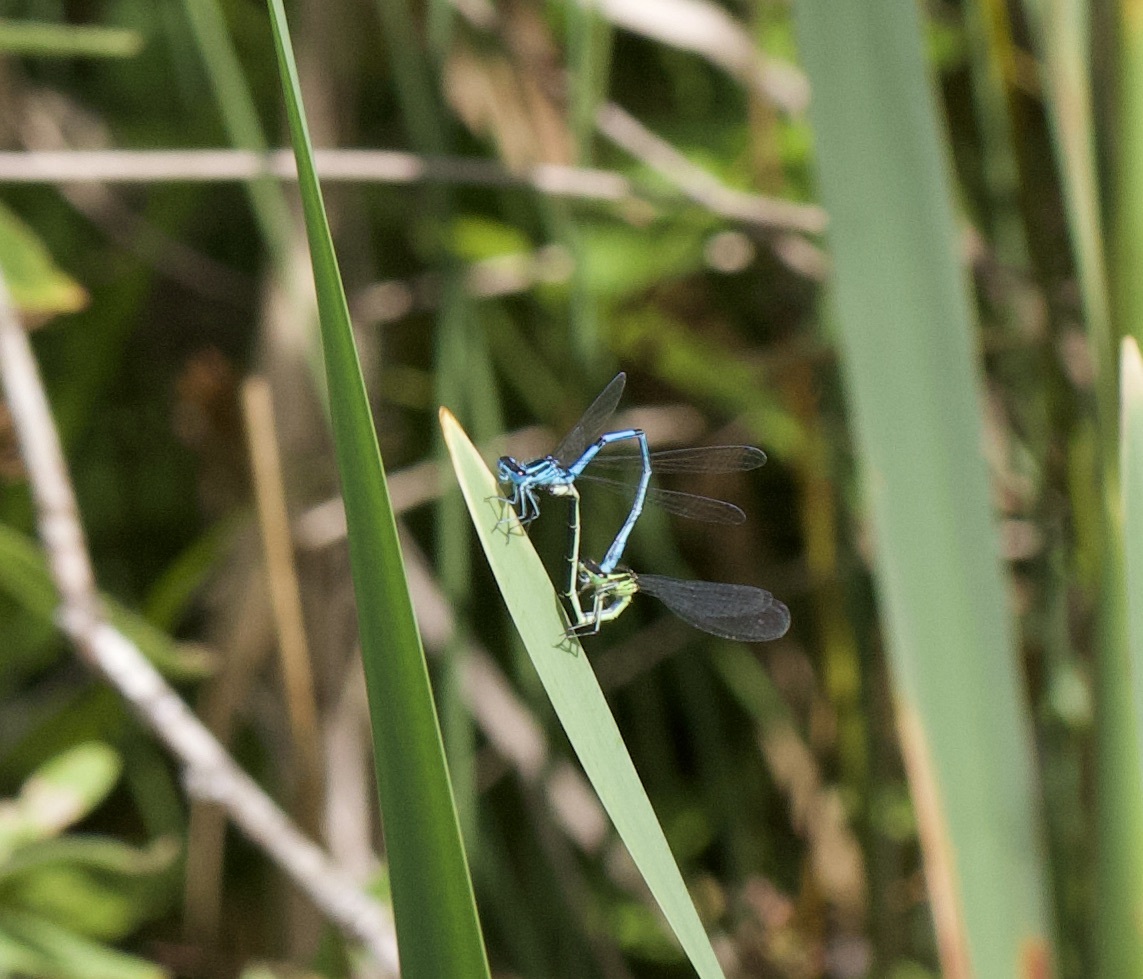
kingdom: Animalia
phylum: Arthropoda
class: Insecta
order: Odonata
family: Coenagrionidae
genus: Coenagrion
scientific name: Coenagrion puella
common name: Azure damselfly
